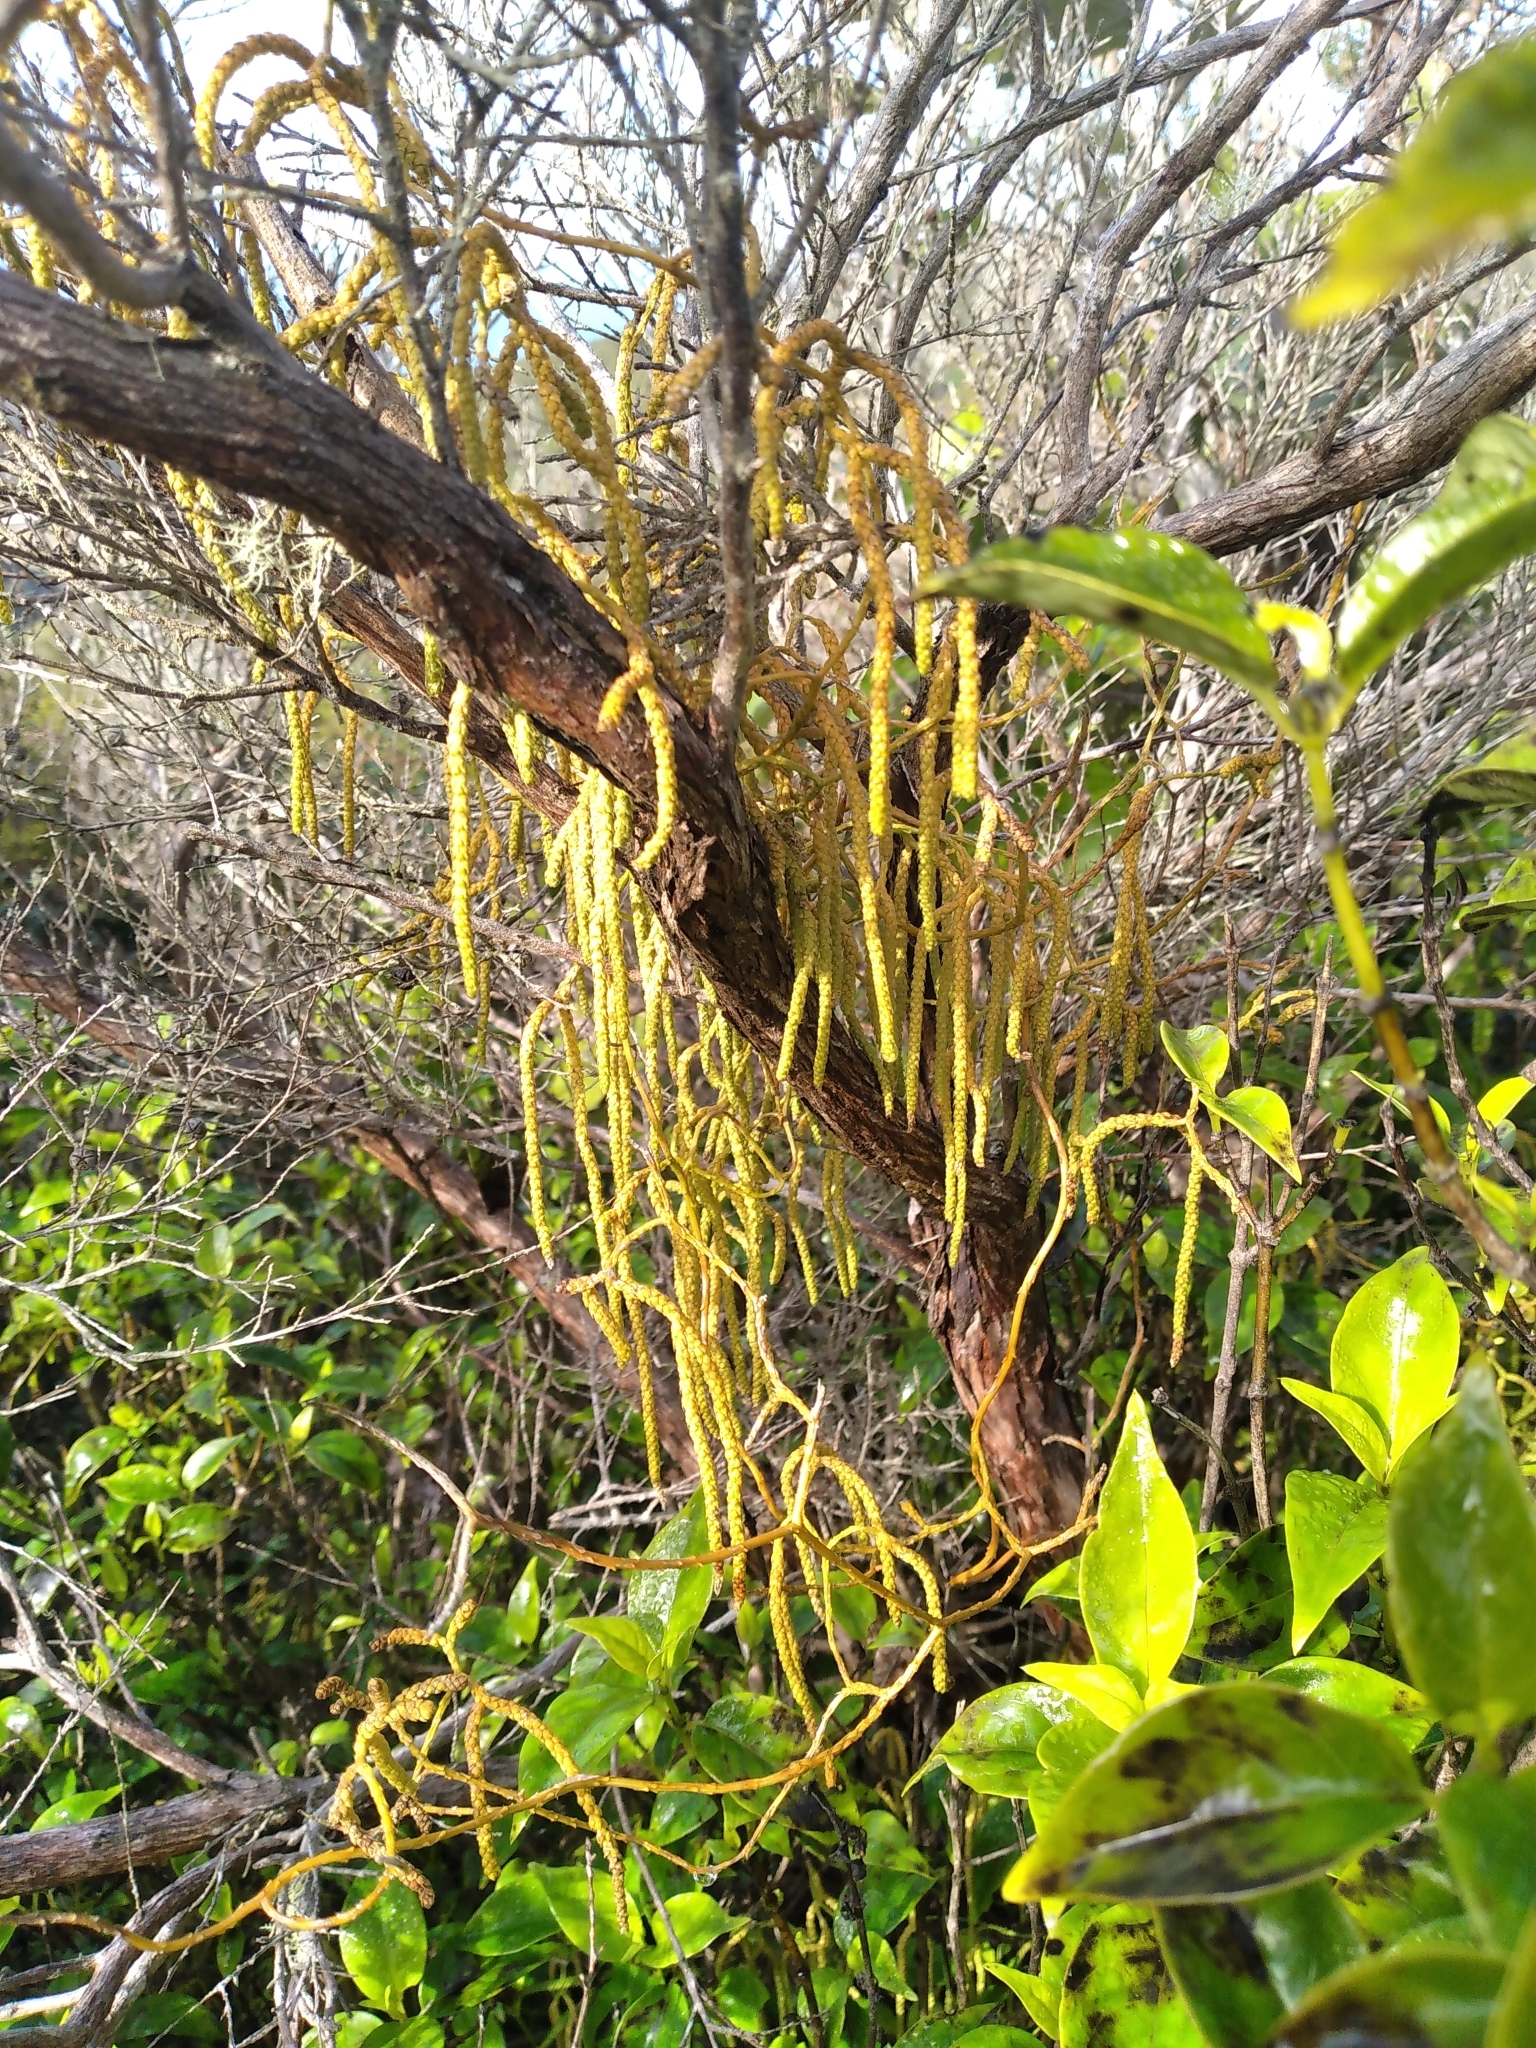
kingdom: Plantae
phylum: Tracheophyta
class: Lycopodiopsida
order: Lycopodiales
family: Lycopodiaceae
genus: Lycopodium
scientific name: Lycopodium volubile
